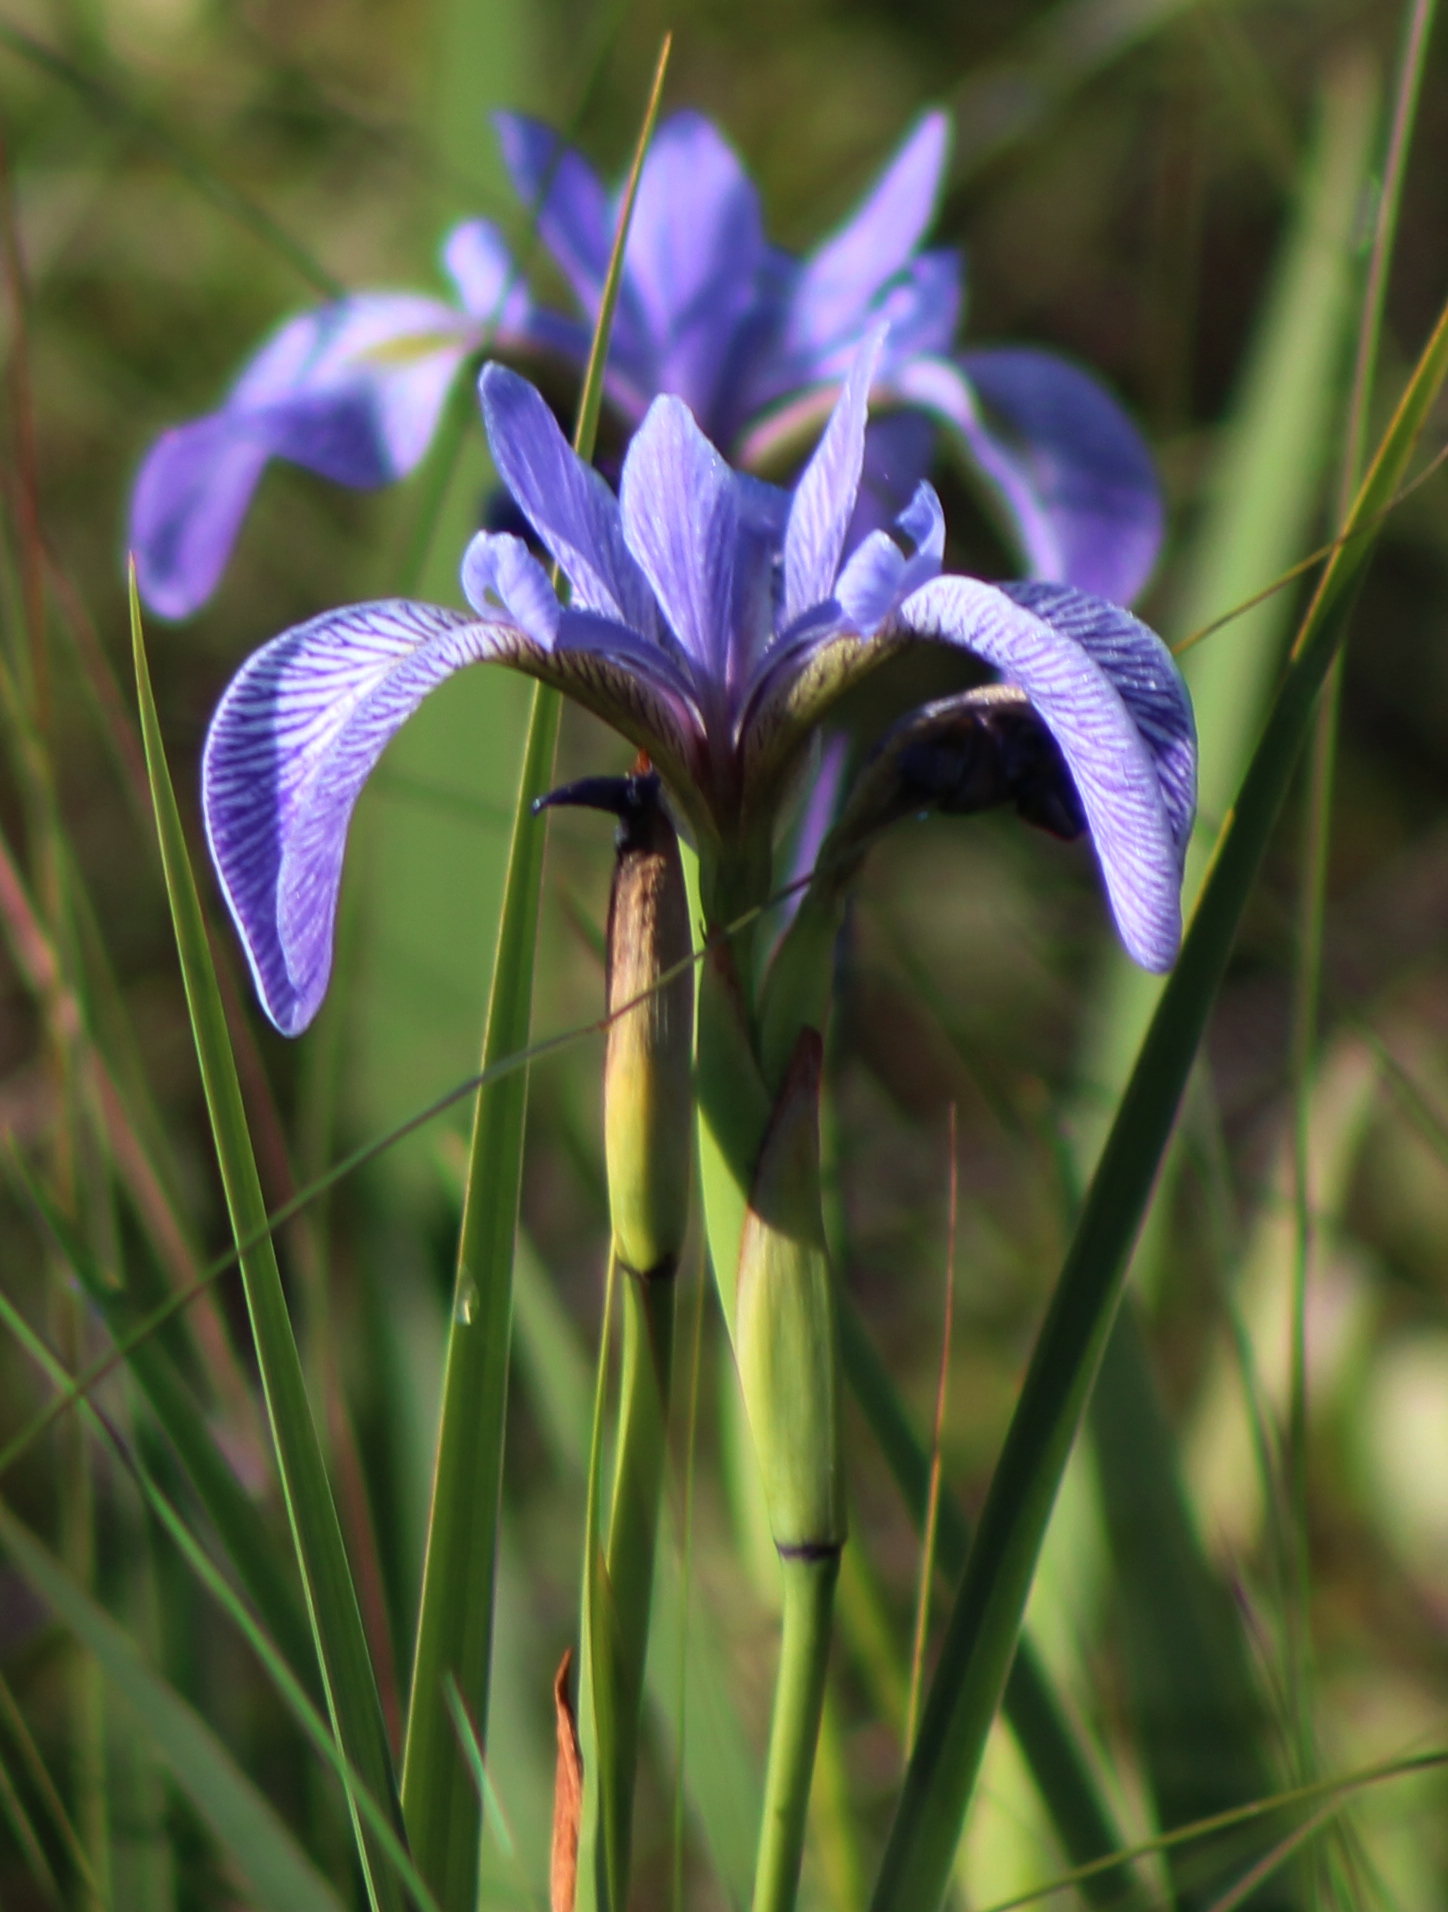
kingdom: Plantae
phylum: Tracheophyta
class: Liliopsida
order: Asparagales
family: Iridaceae
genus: Iris
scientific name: Iris versicolor
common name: Purple iris
